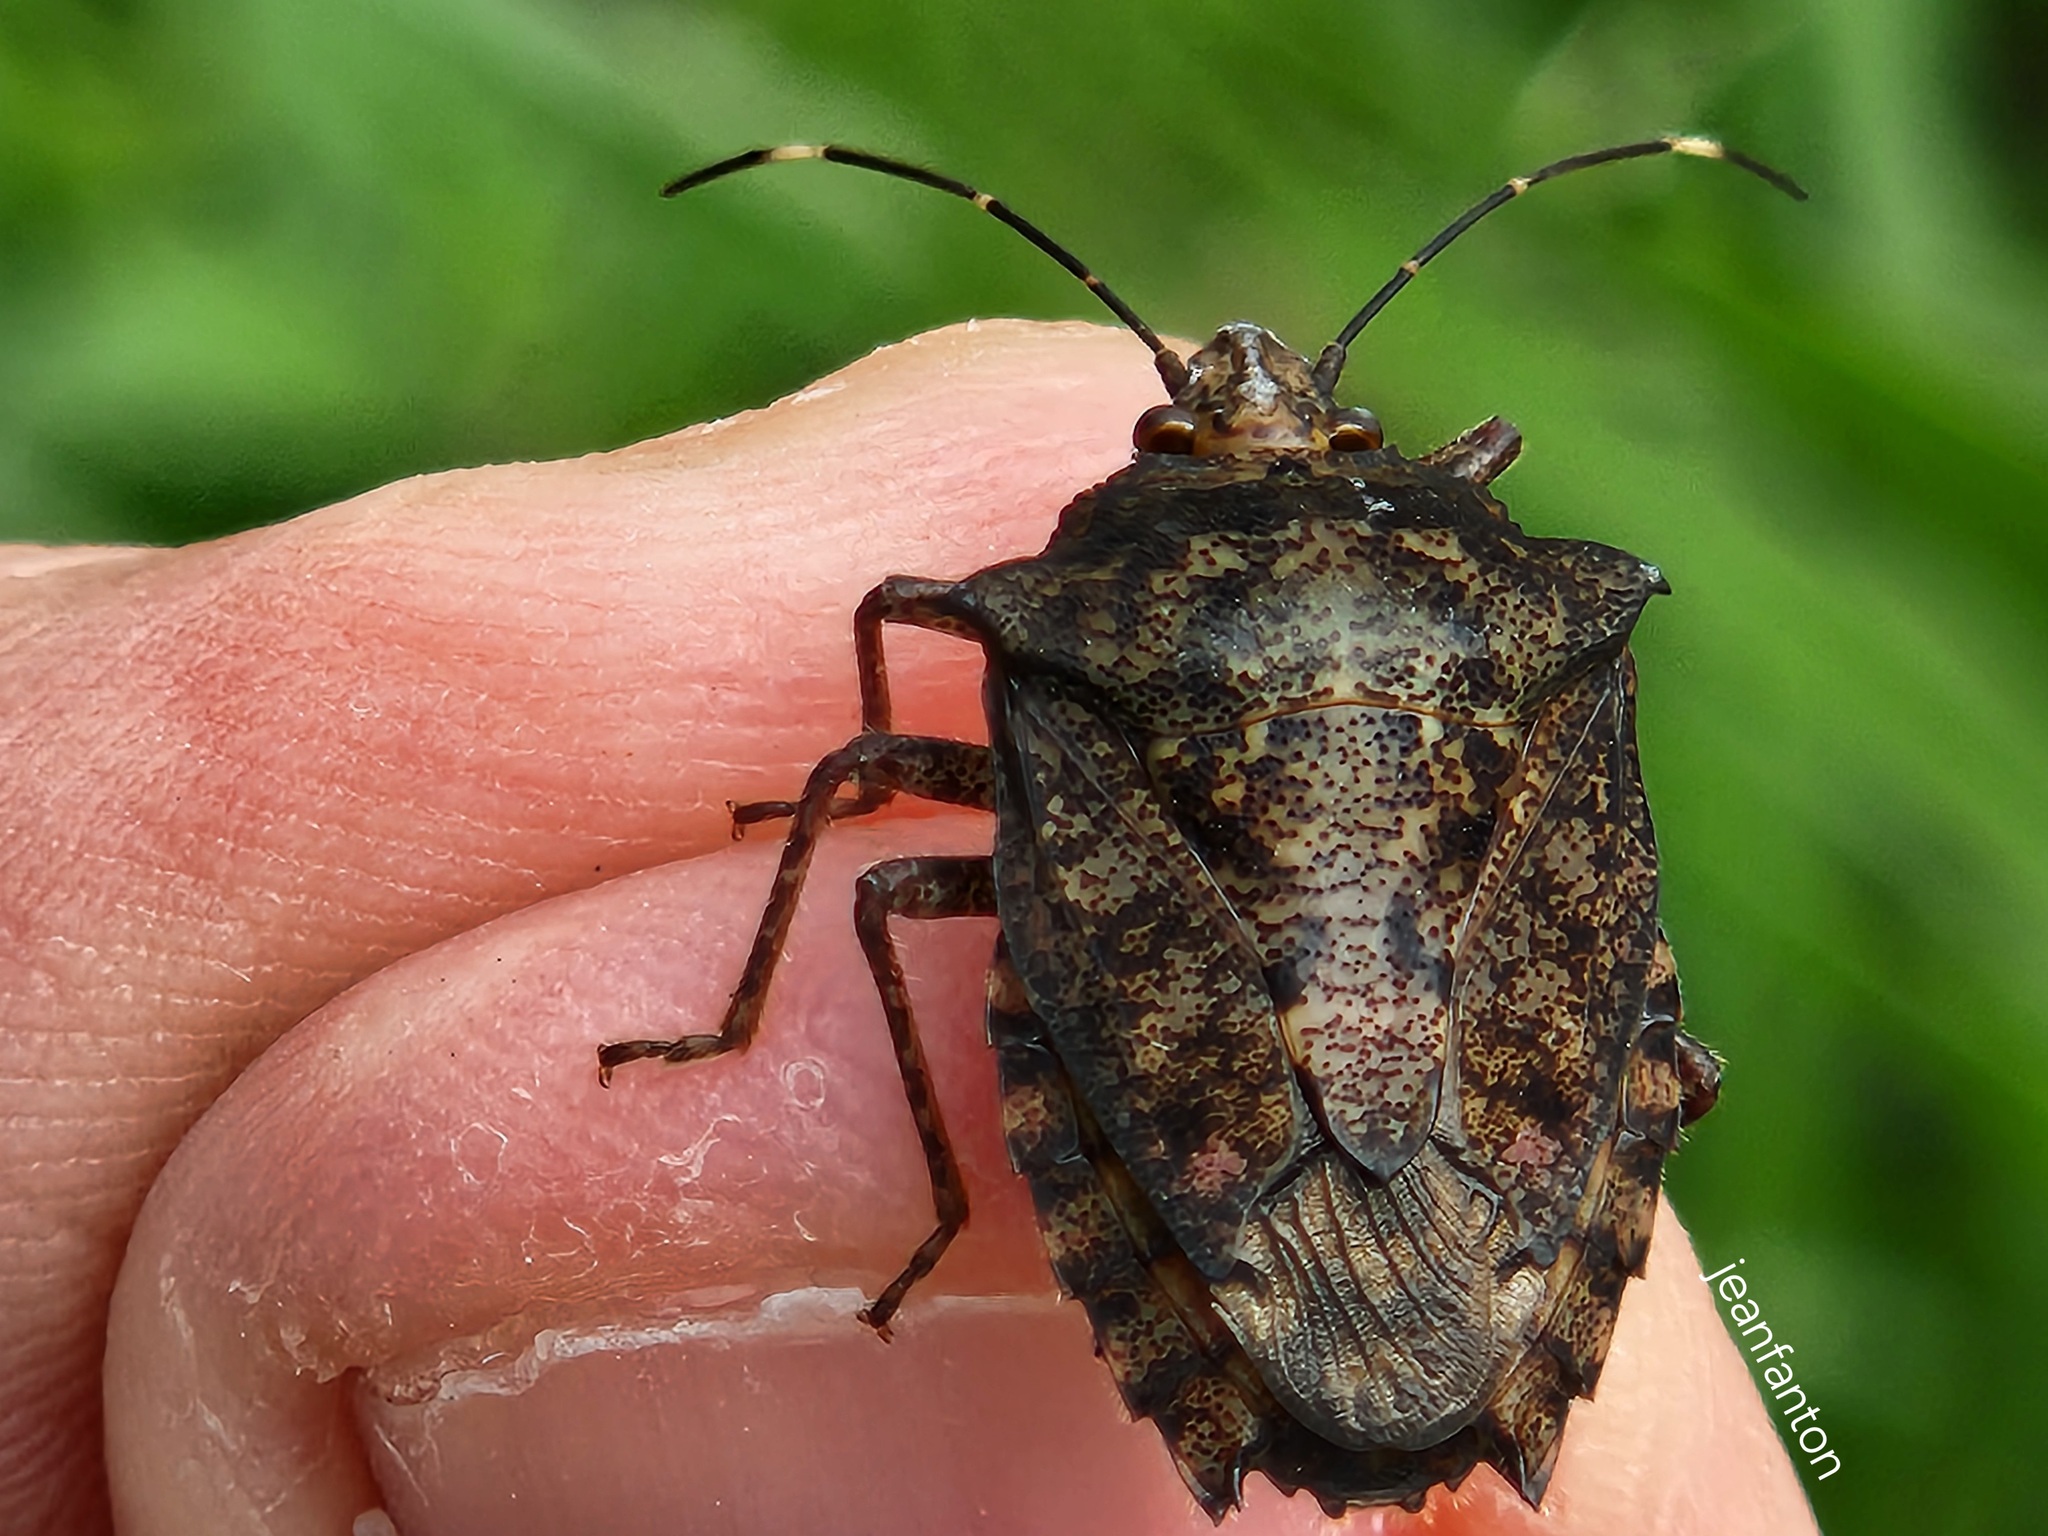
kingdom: Animalia
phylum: Arthropoda
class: Insecta
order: Hemiptera
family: Pentatomidae
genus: Pseudevoplitus
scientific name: Pseudevoplitus
